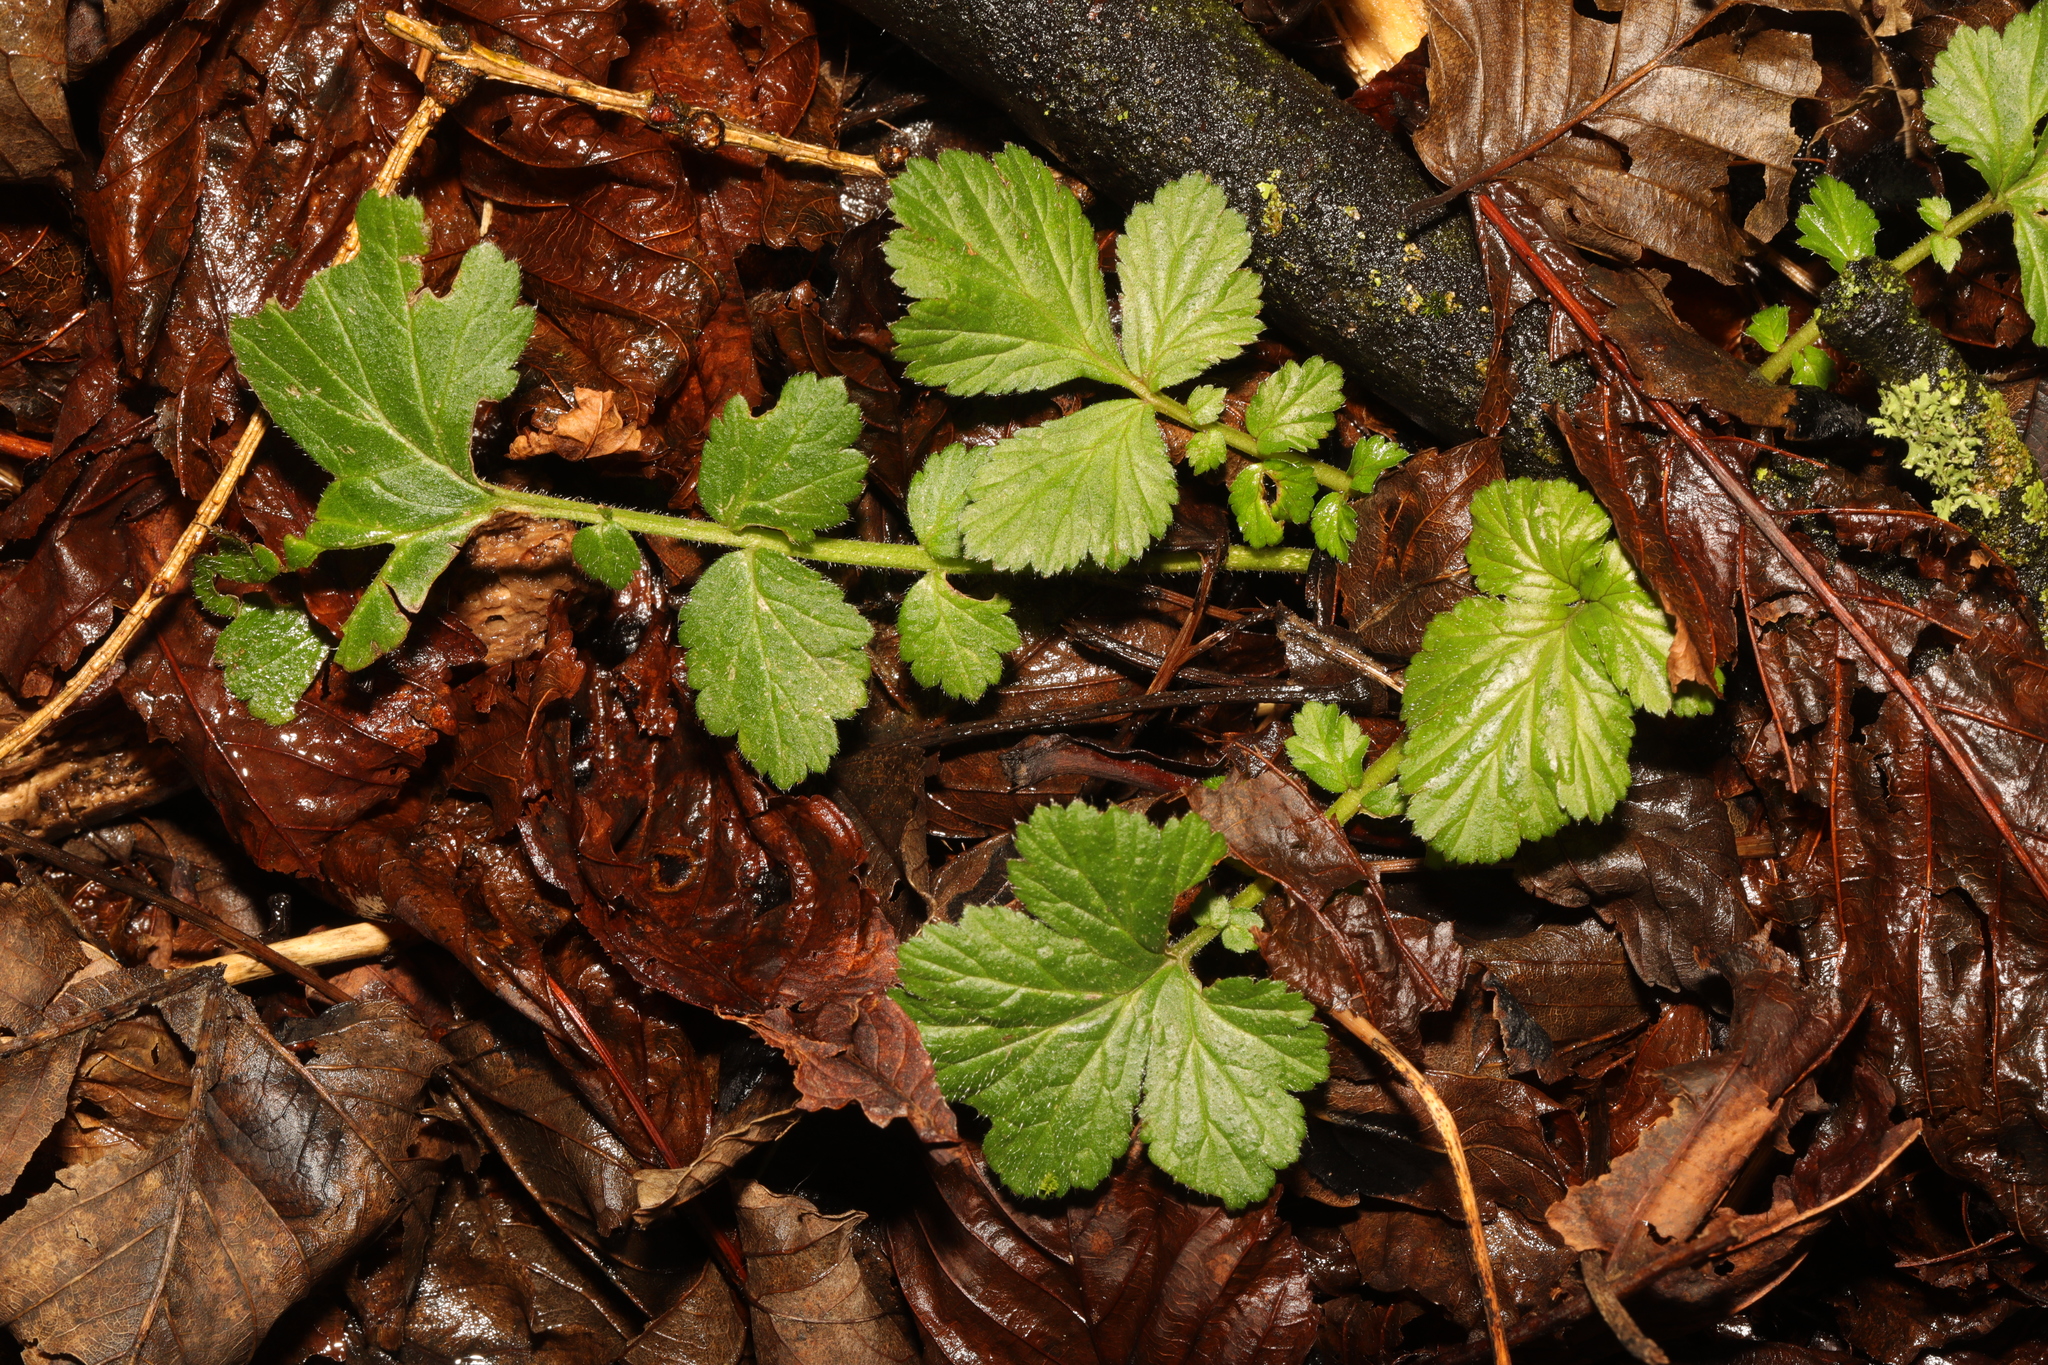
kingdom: Plantae
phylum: Tracheophyta
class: Magnoliopsida
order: Rosales
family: Rosaceae
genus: Geum
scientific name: Geum urbanum
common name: Wood avens
